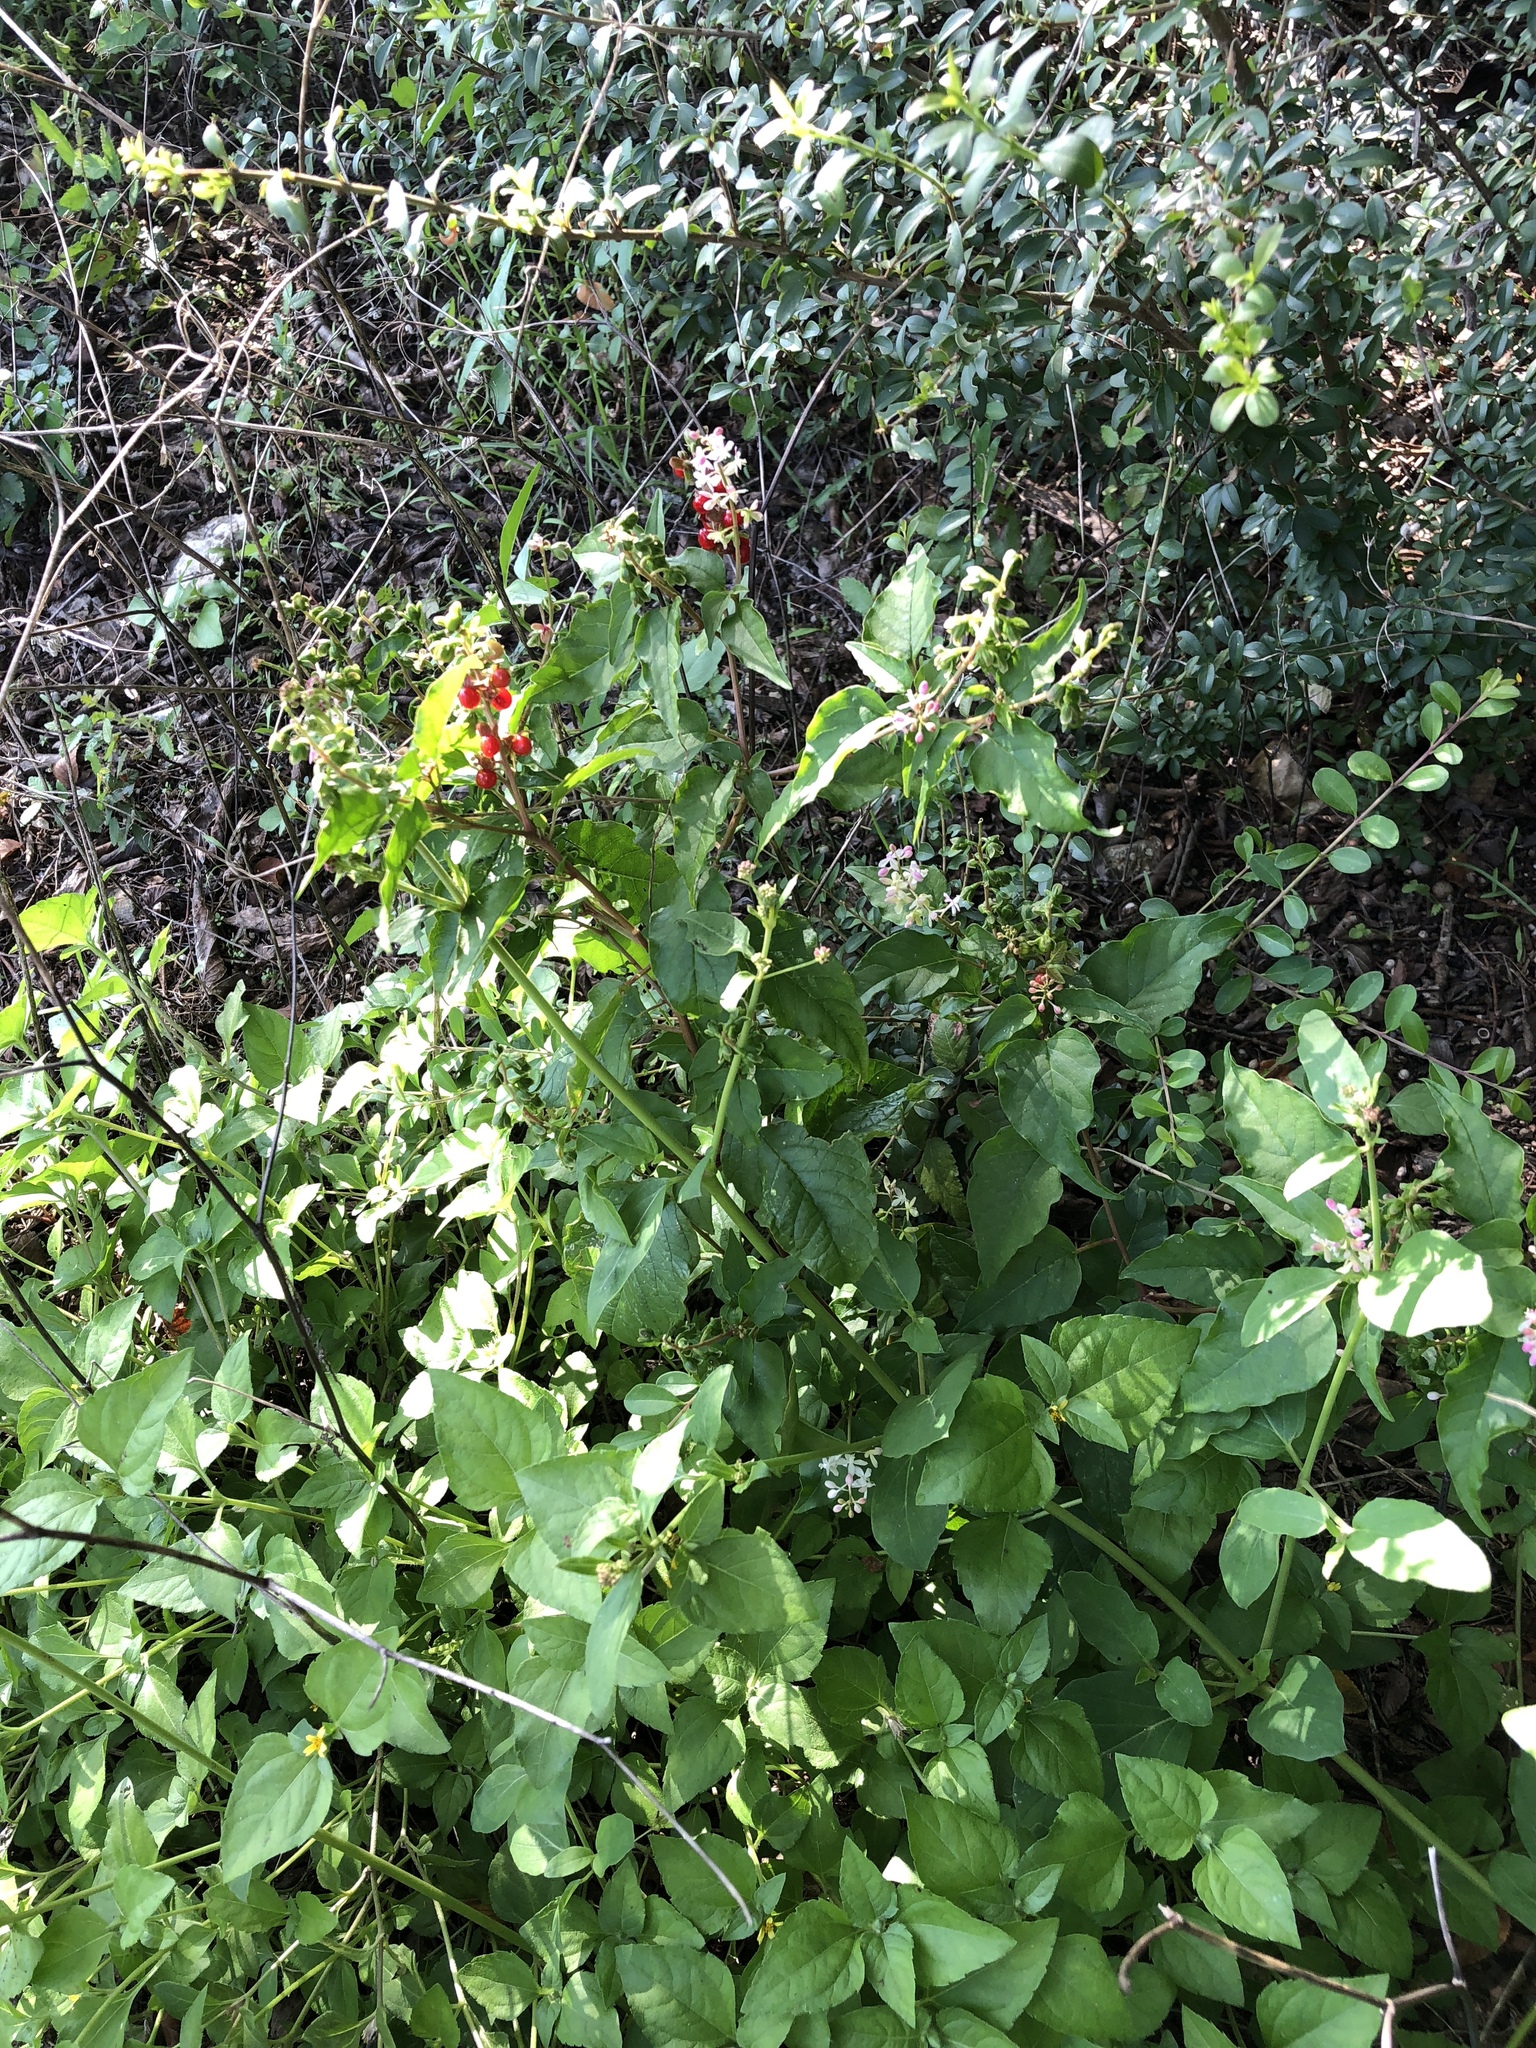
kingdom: Plantae
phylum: Tracheophyta
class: Magnoliopsida
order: Caryophyllales
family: Phytolaccaceae
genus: Rivina
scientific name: Rivina humilis
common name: Rougeplant
